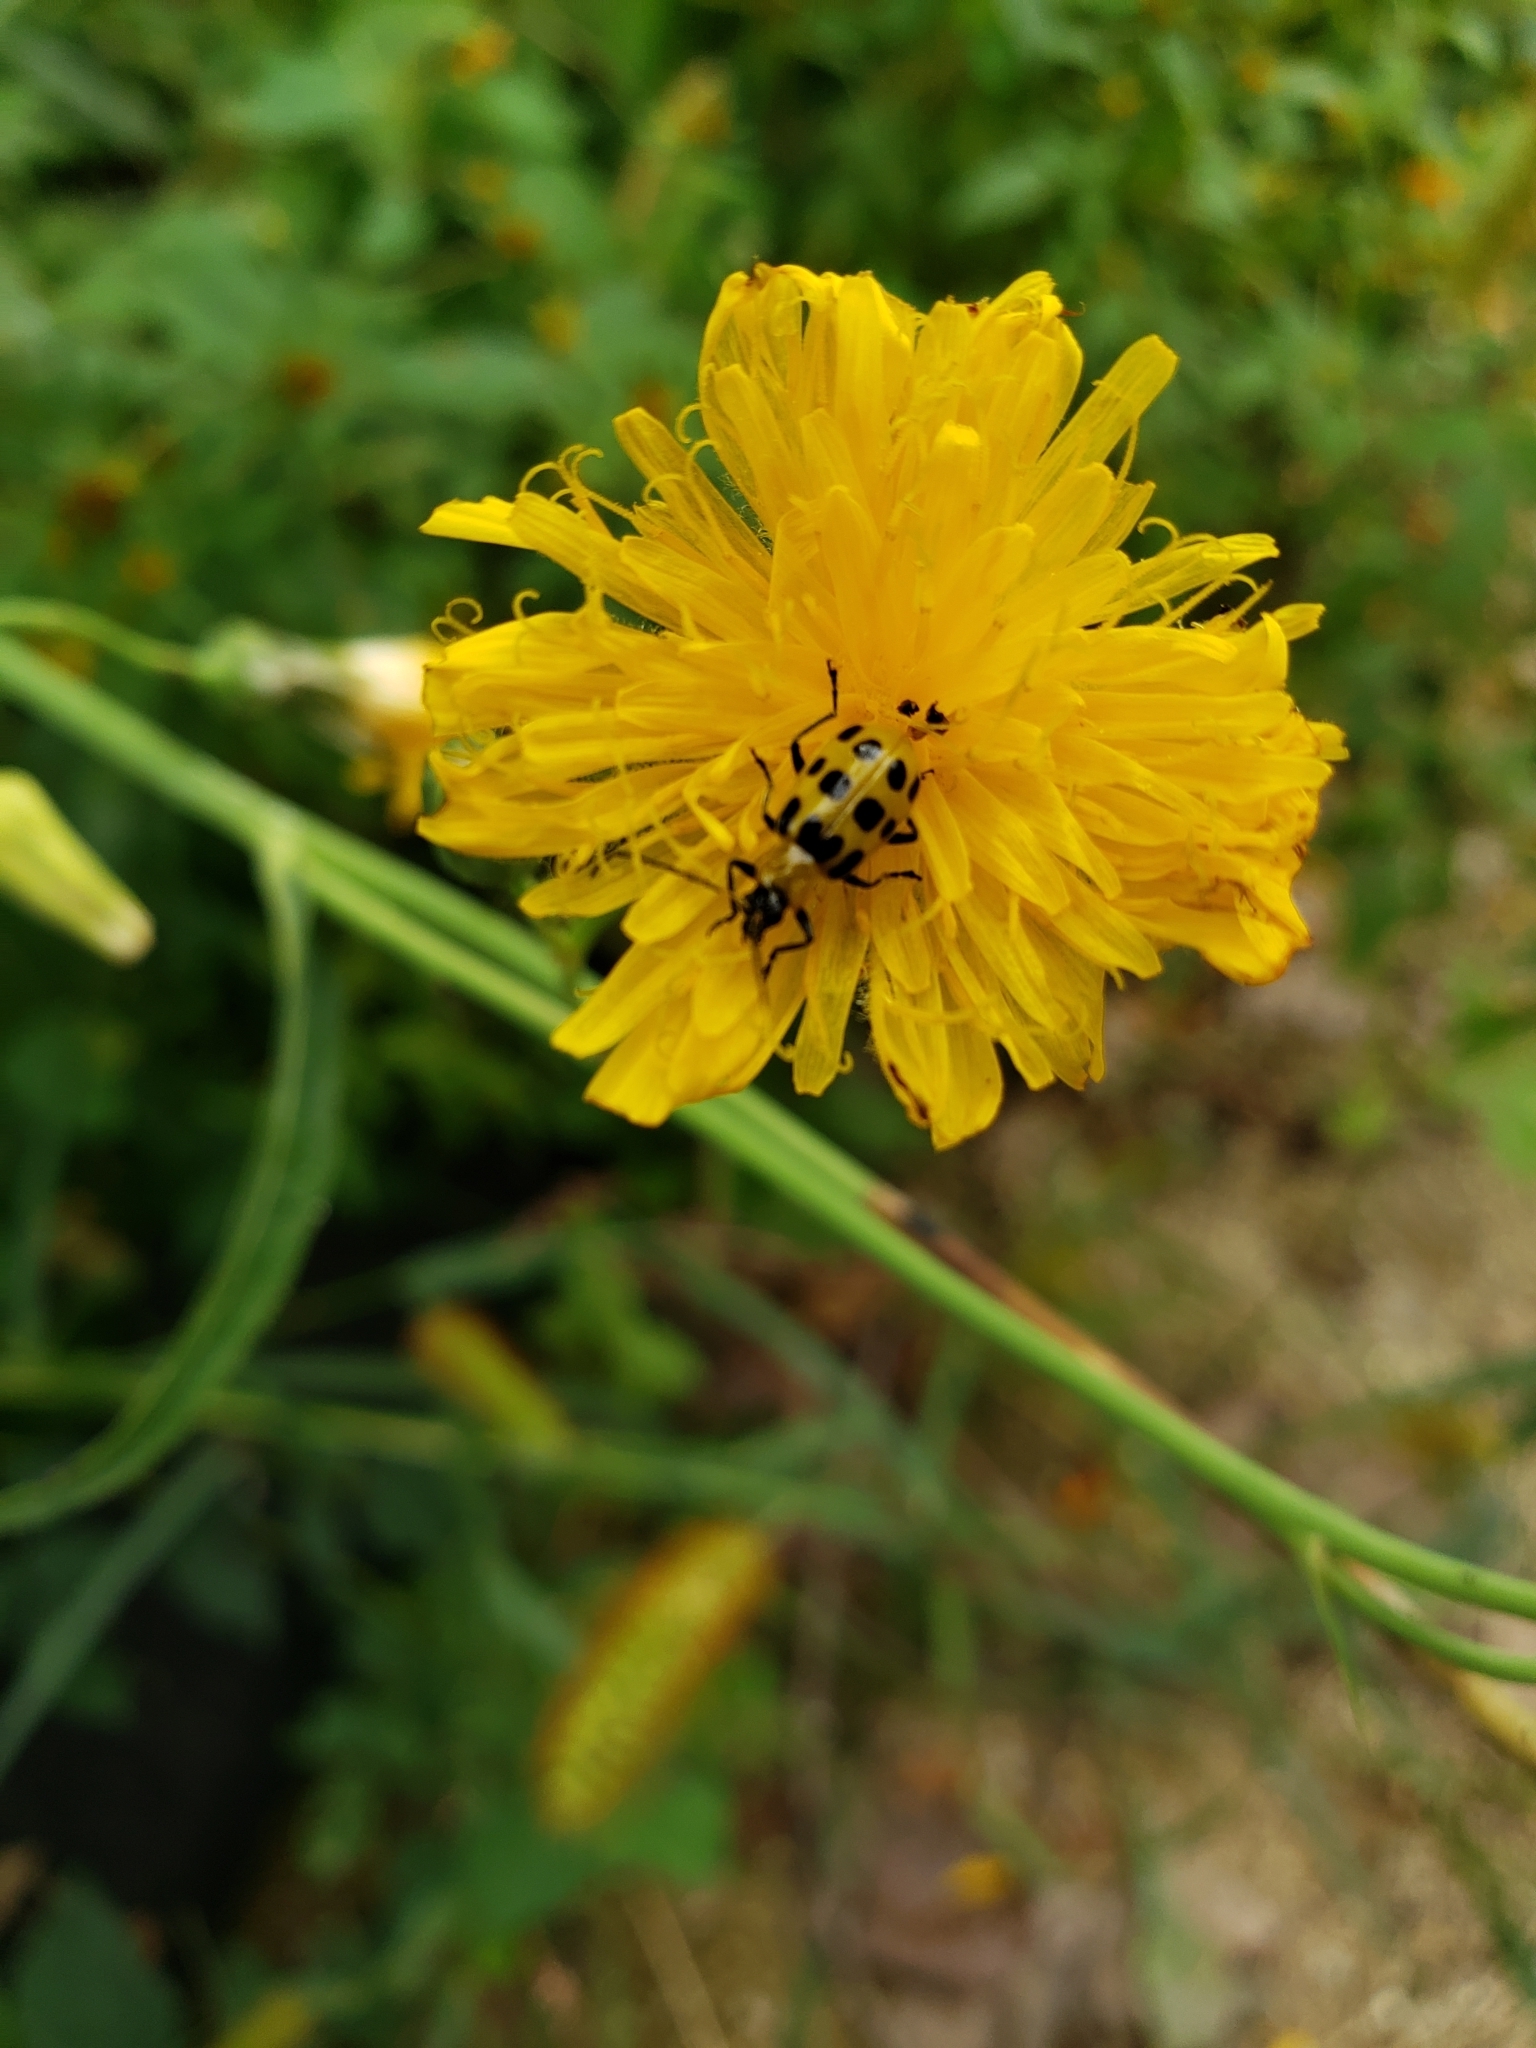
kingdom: Animalia
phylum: Arthropoda
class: Insecta
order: Coleoptera
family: Chrysomelidae
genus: Diabrotica
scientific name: Diabrotica undecimpunctata
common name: Spotted cucumber beetle
